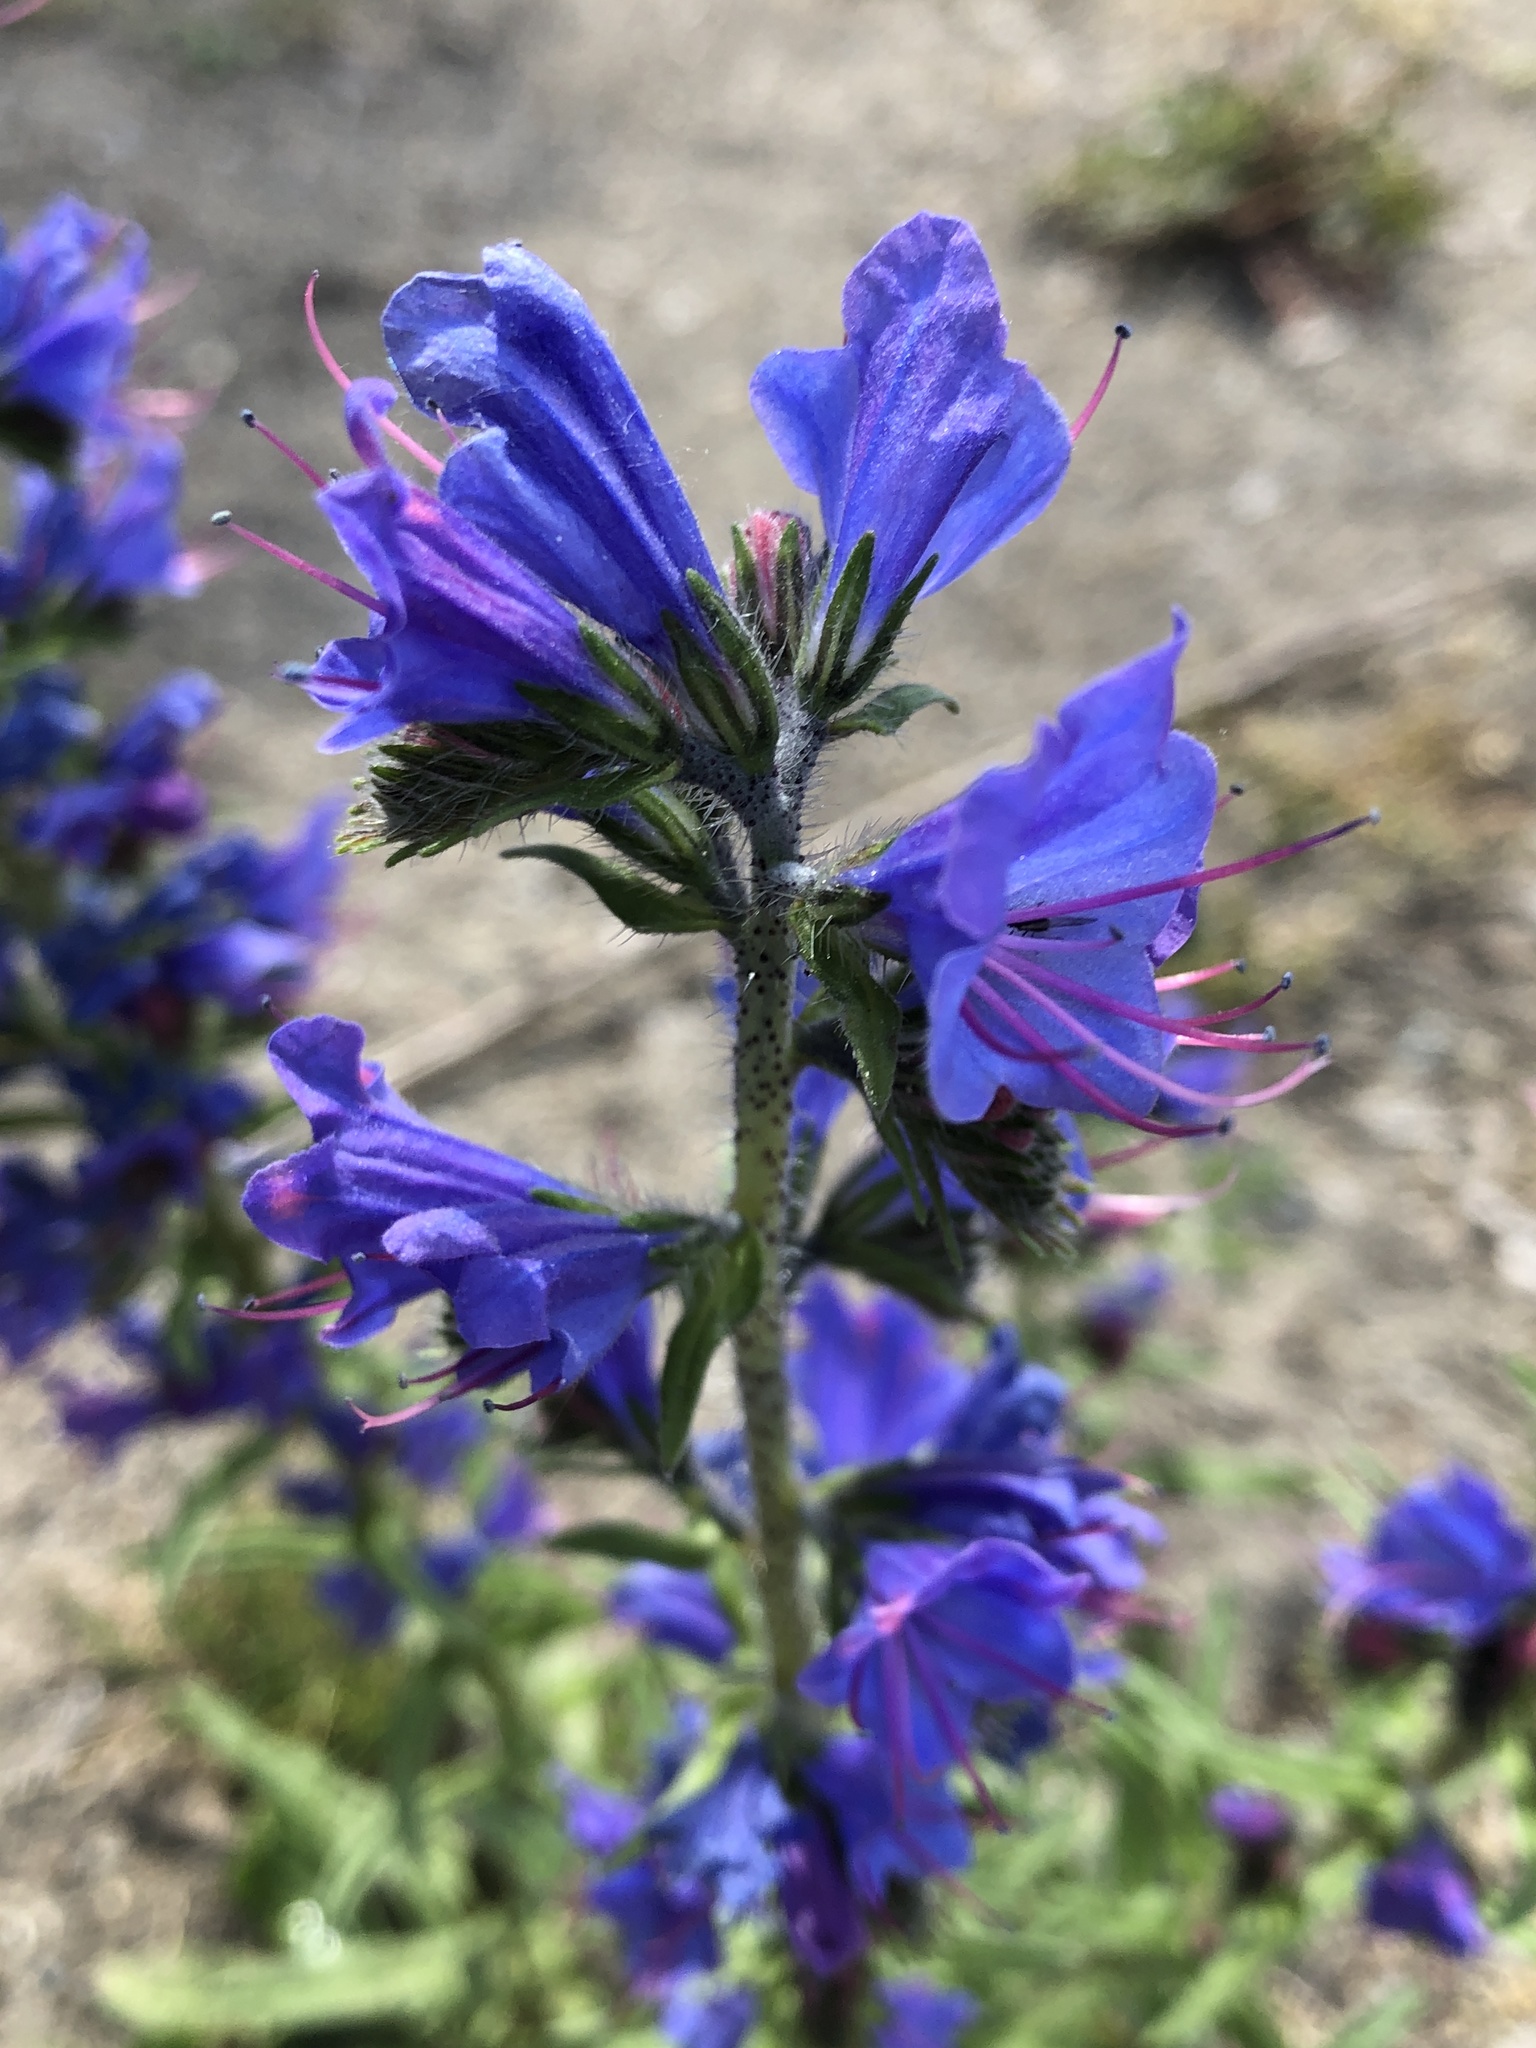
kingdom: Plantae
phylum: Tracheophyta
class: Magnoliopsida
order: Boraginales
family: Boraginaceae
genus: Echium
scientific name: Echium vulgare
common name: Common viper's bugloss
